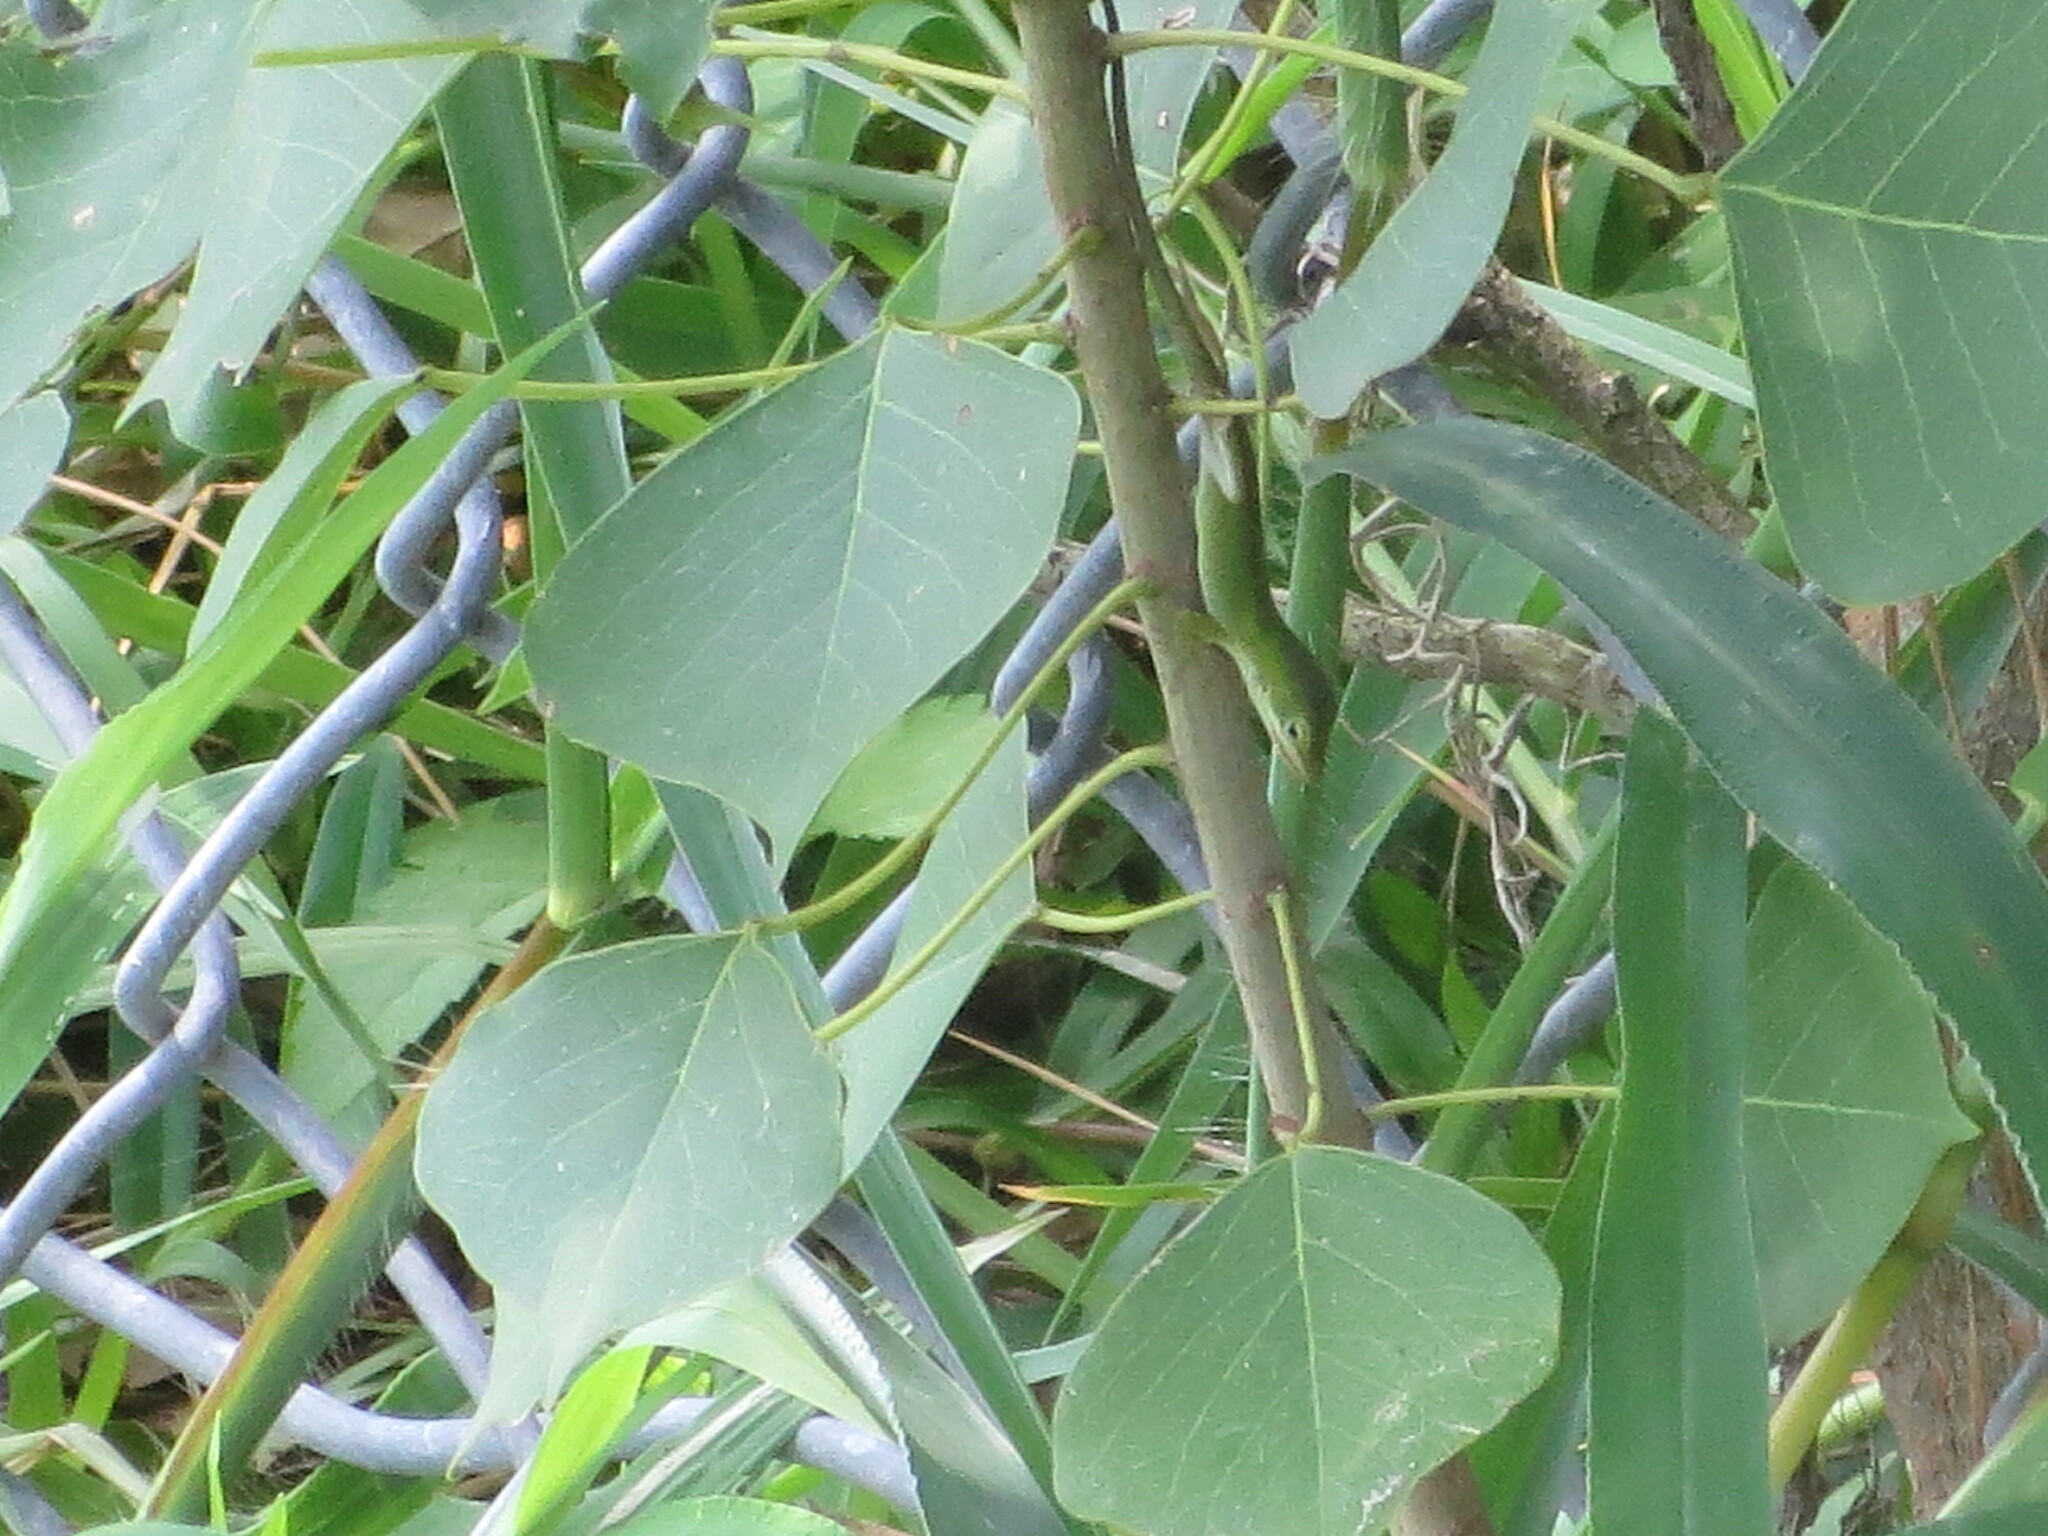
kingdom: Animalia
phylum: Chordata
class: Squamata
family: Dactyloidae
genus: Anolis
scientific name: Anolis carolinensis
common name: Green anole
